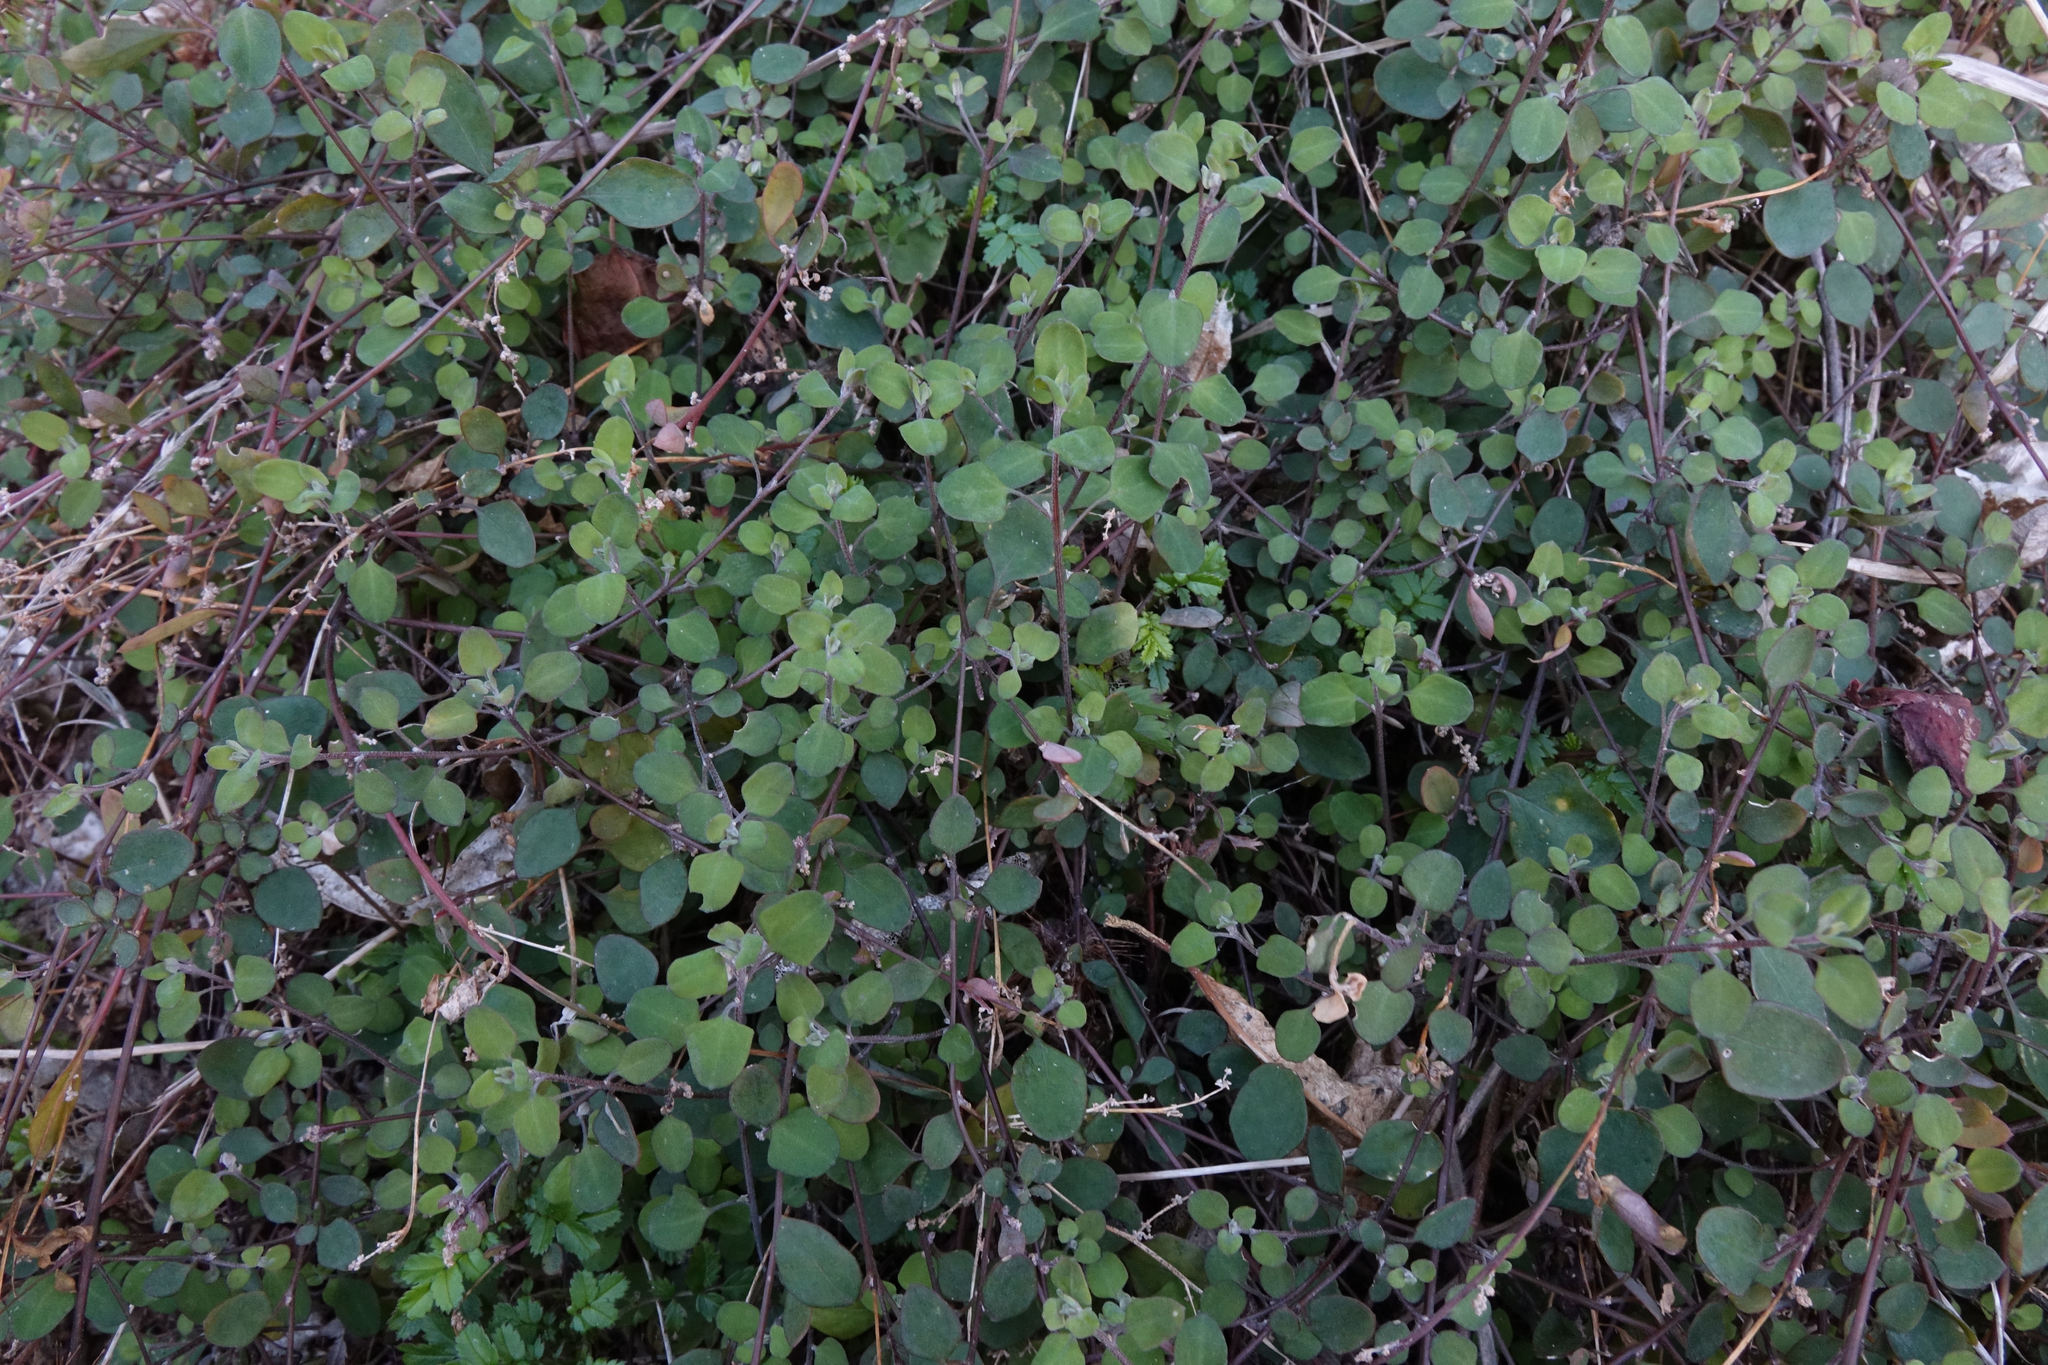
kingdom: Plantae
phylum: Tracheophyta
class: Magnoliopsida
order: Caryophyllales
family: Amaranthaceae
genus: Chenopodium
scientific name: Chenopodium allanii
